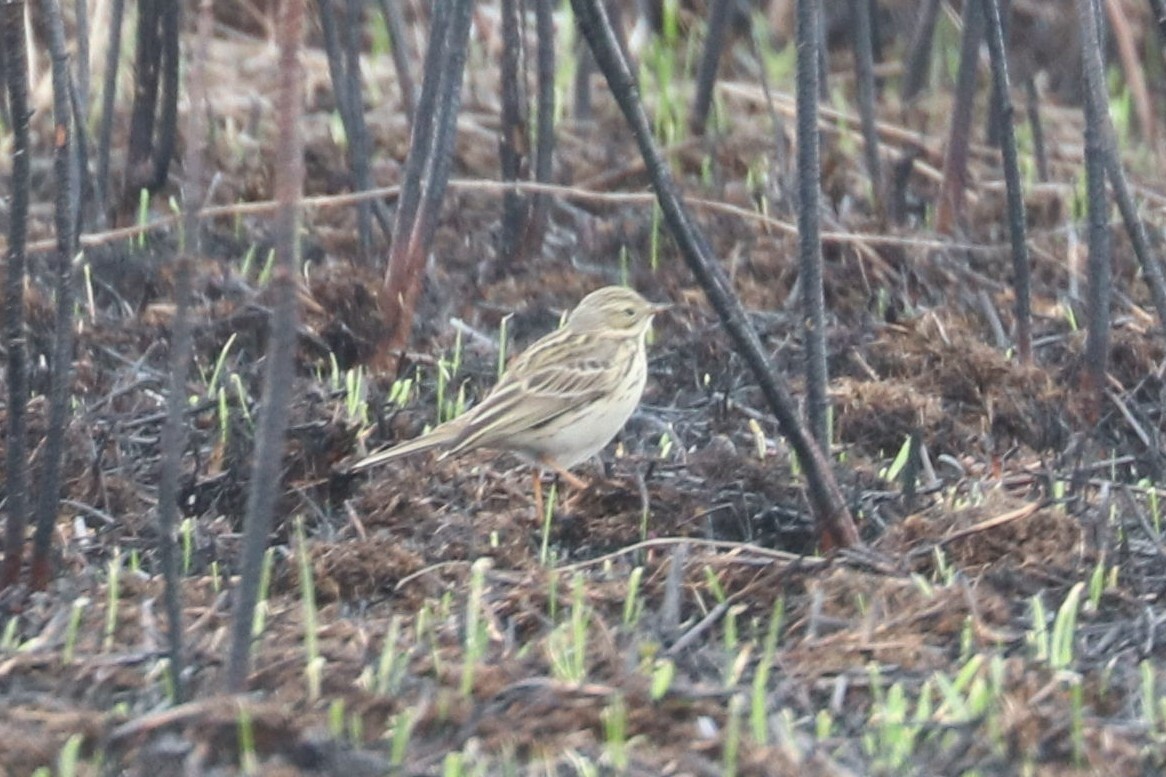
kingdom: Animalia
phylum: Chordata
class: Aves
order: Passeriformes
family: Motacillidae
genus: Anthus
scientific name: Anthus trivialis
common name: Tree pipit
